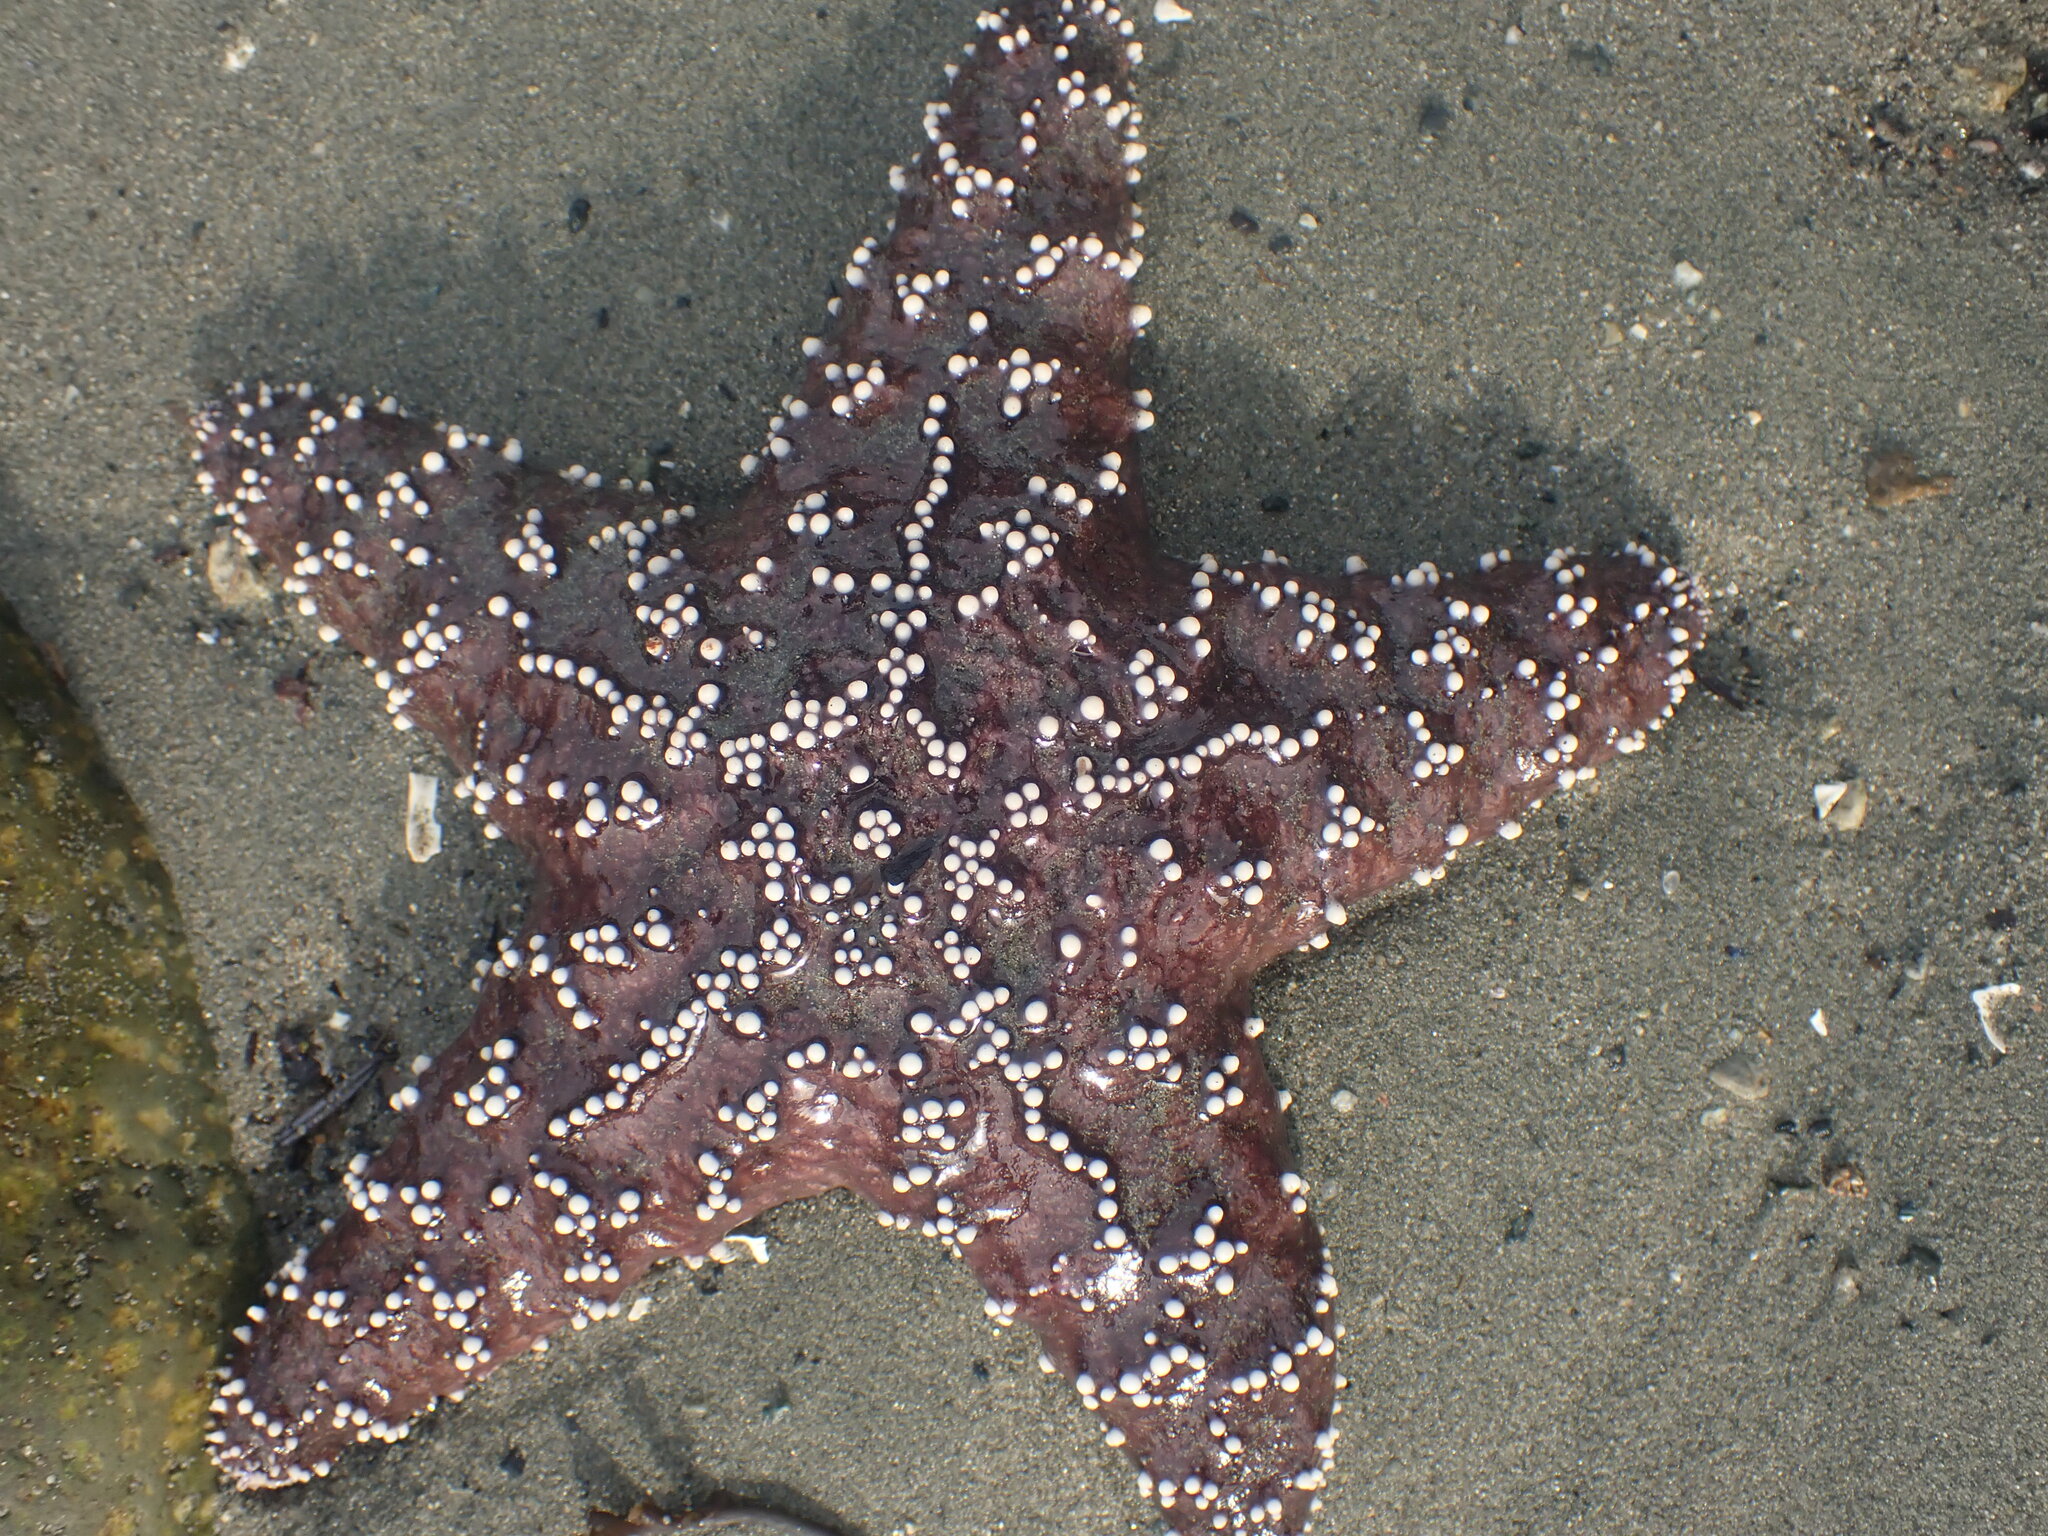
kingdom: Animalia
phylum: Echinodermata
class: Asteroidea
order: Forcipulatida
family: Asteriidae
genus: Pisaster
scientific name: Pisaster ochraceus
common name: Ochre stars
